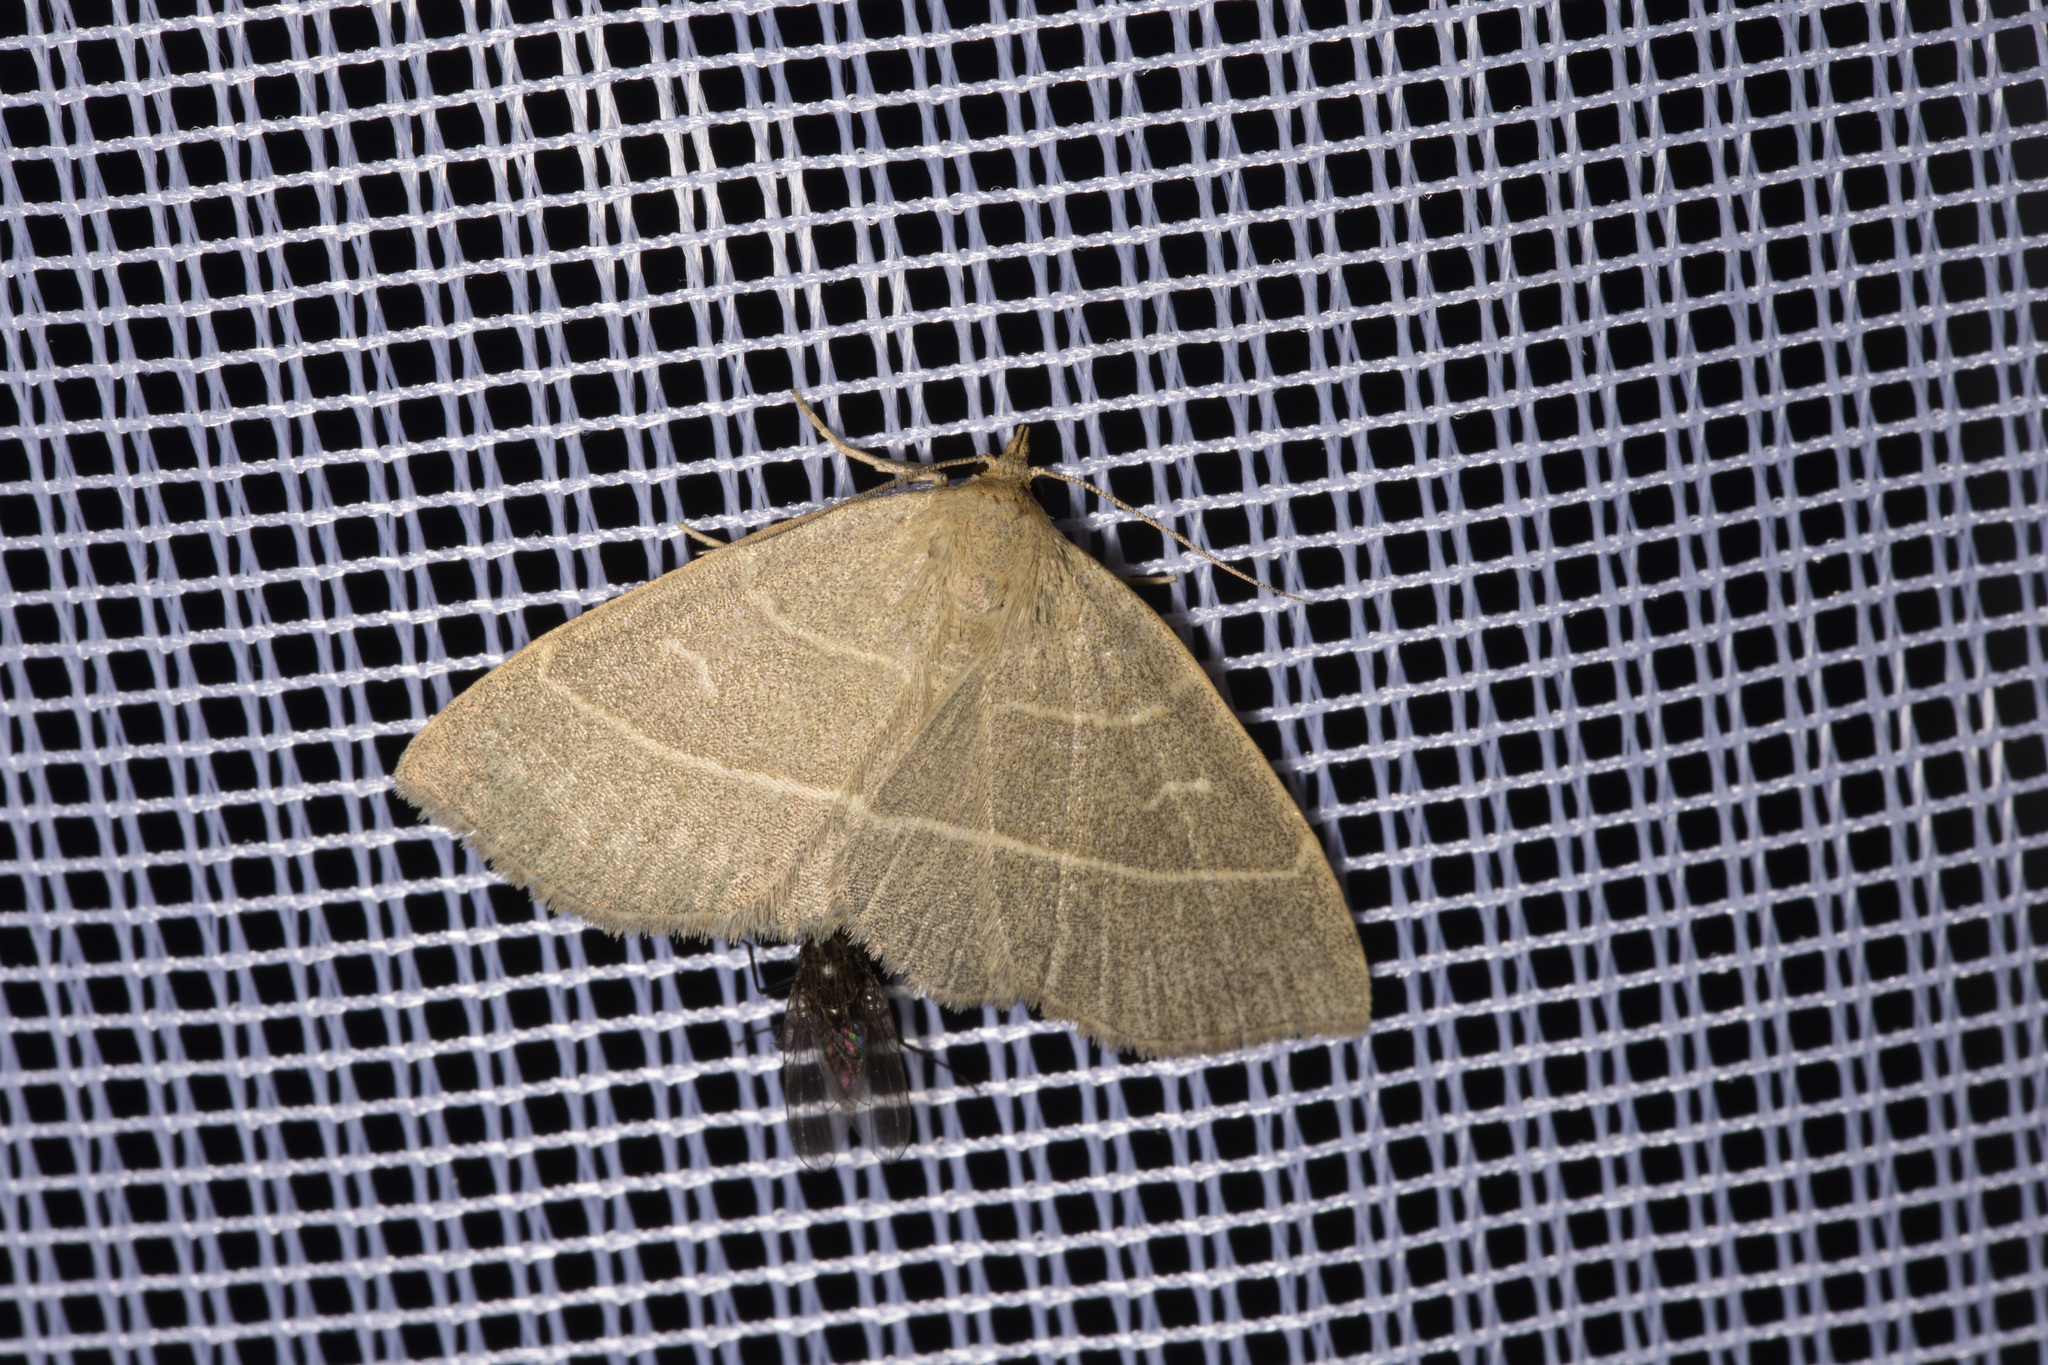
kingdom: Animalia
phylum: Arthropoda
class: Insecta
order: Lepidoptera
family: Erebidae
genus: Trisateles
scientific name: Trisateles emortualis
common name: Olive crescent
